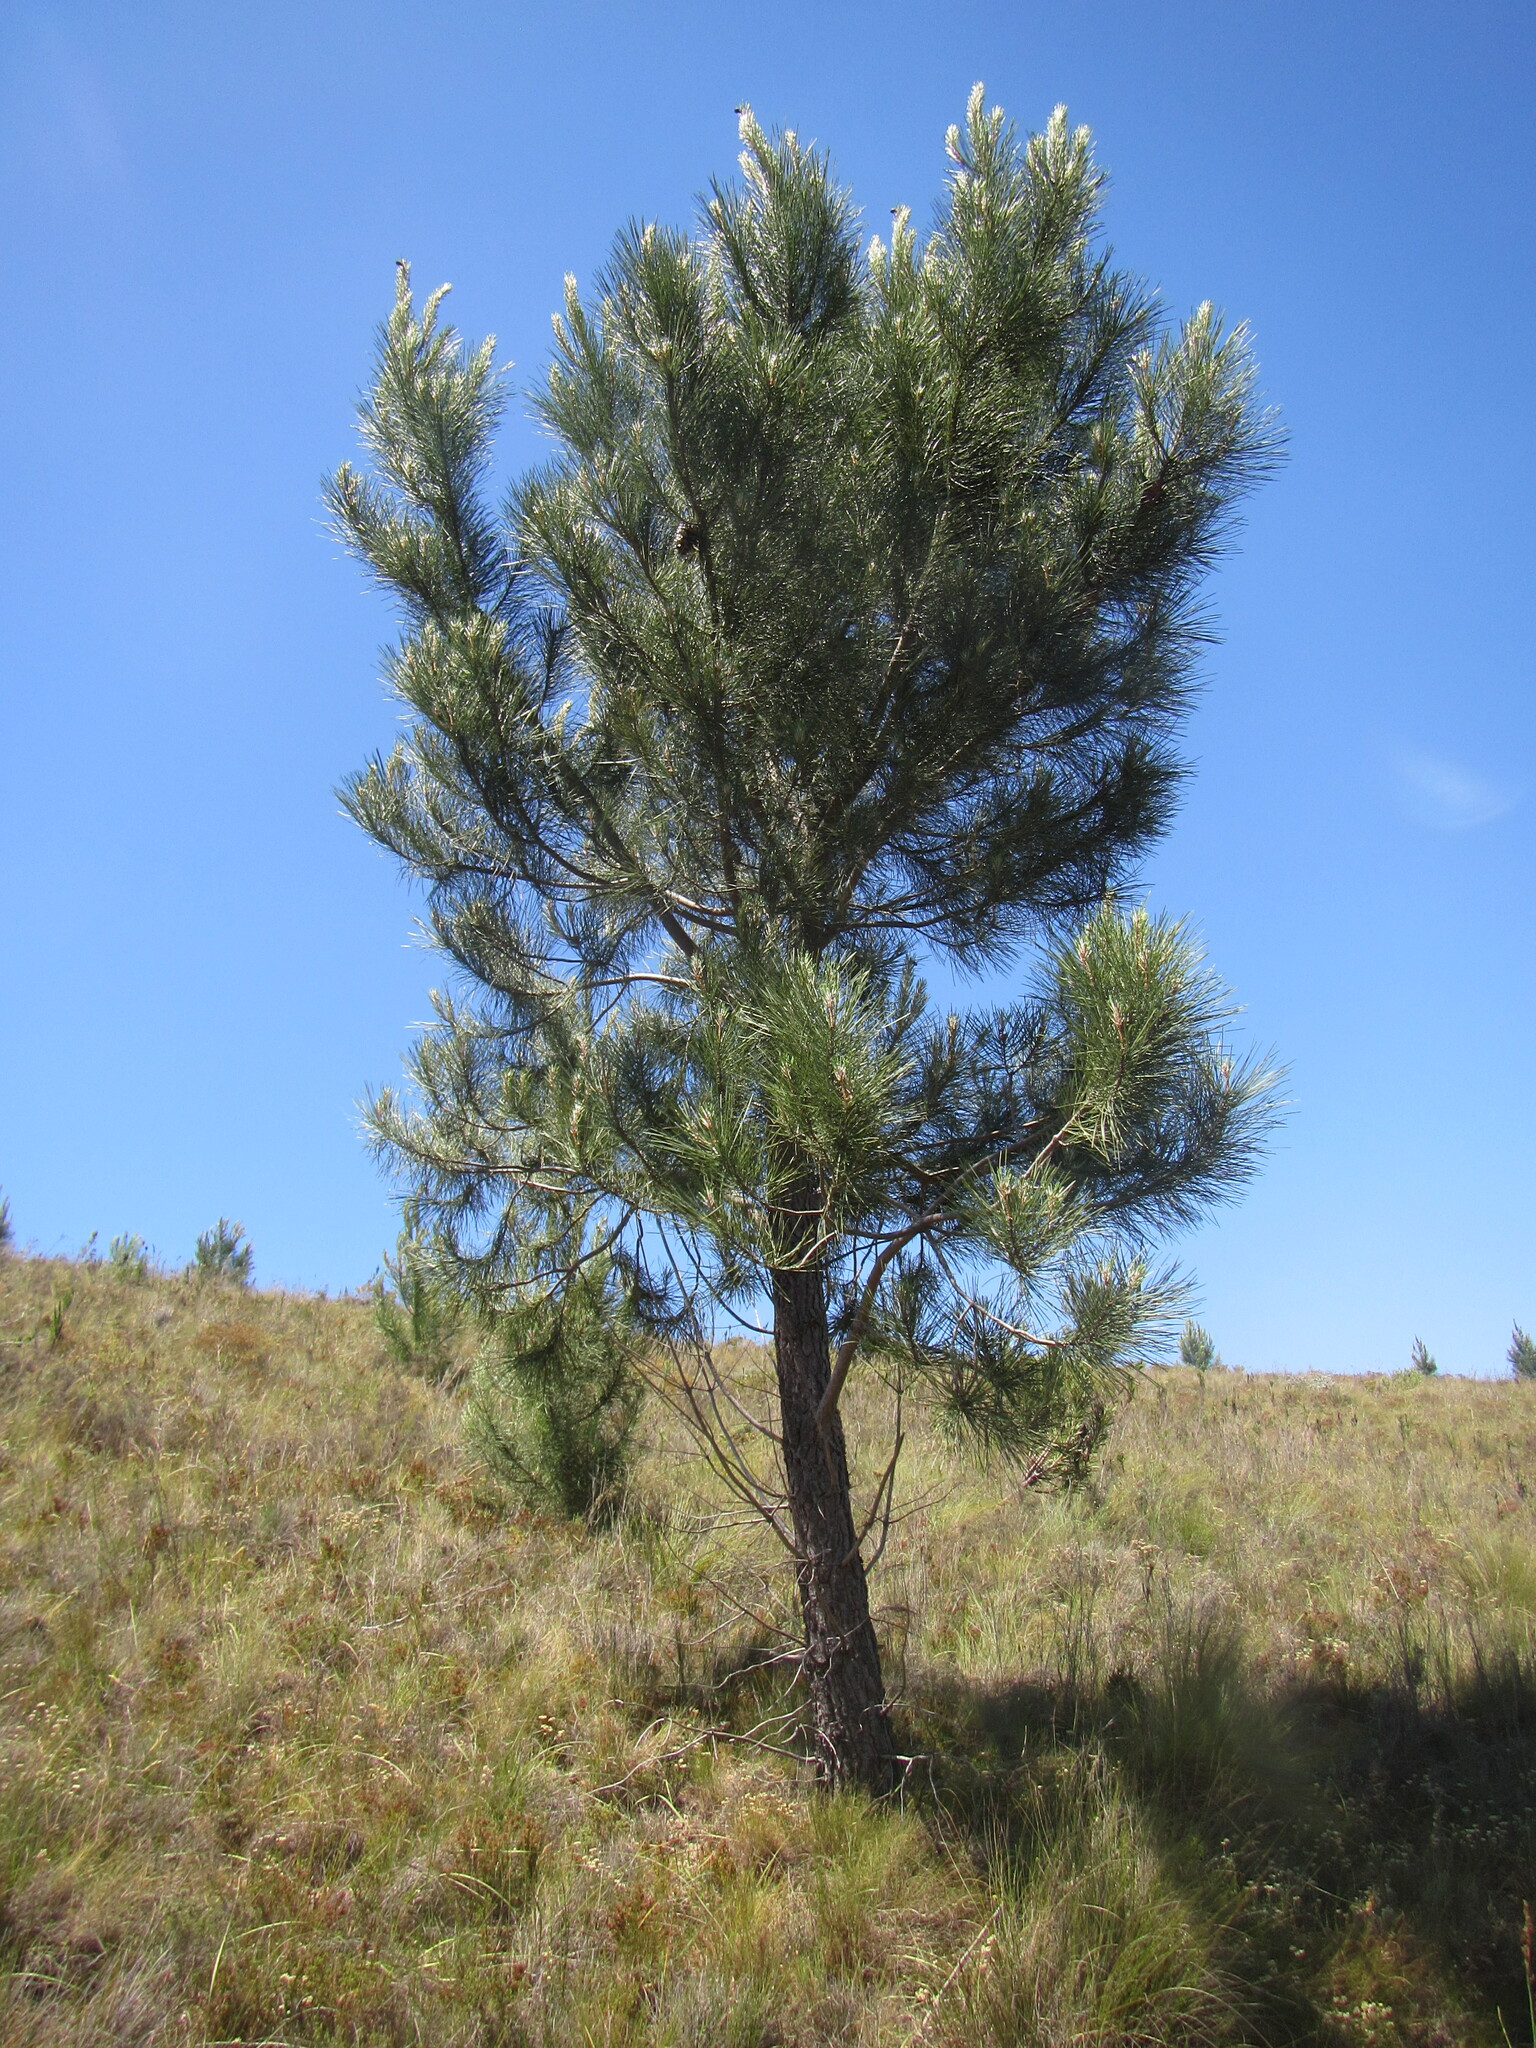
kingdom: Plantae
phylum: Tracheophyta
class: Pinopsida
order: Pinales
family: Pinaceae
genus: Pinus
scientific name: Pinus pinaster
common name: Maritime pine
